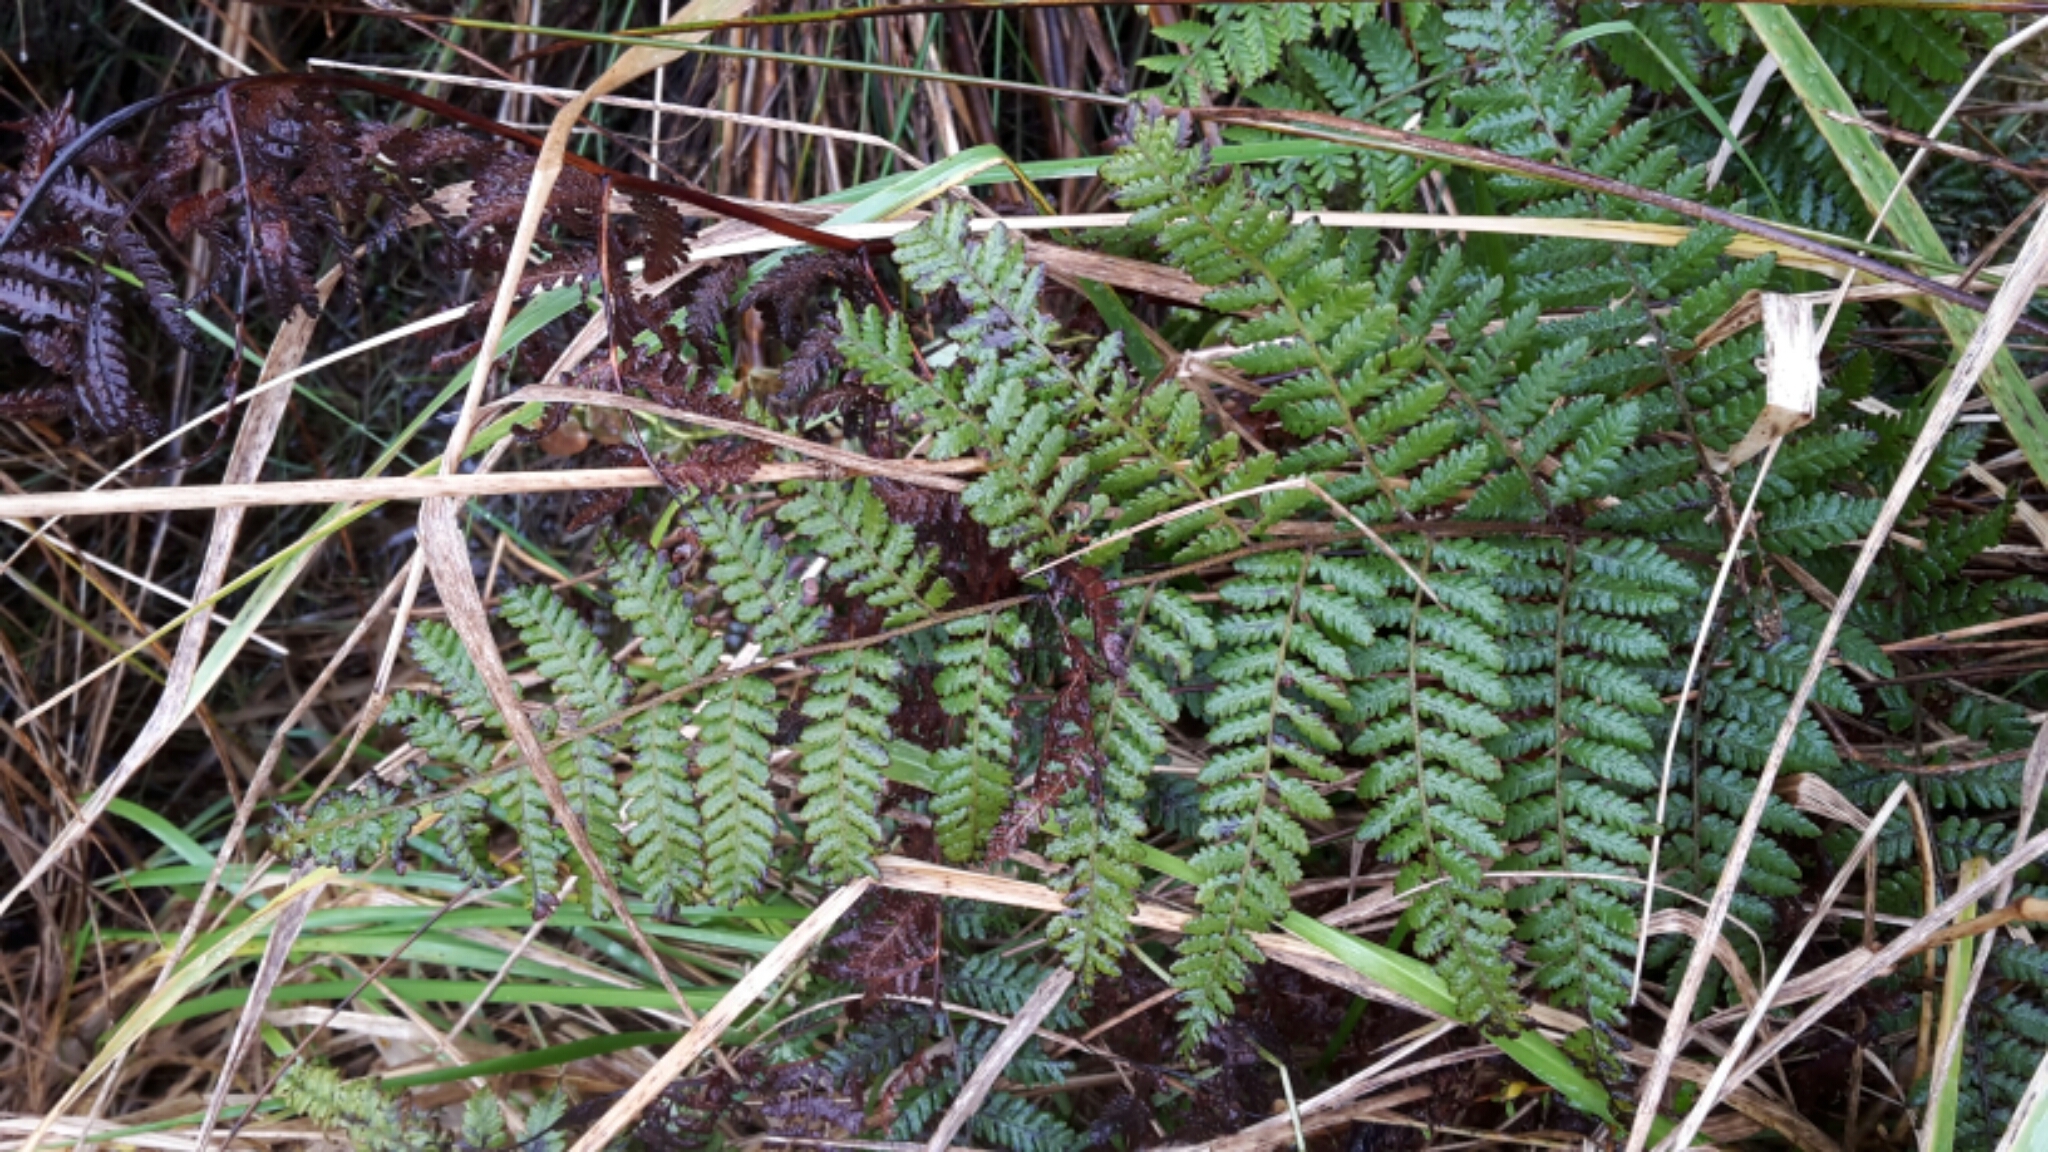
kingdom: Plantae
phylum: Tracheophyta
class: Polypodiopsida
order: Polypodiales
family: Dennstaedtiaceae
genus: Hypolepis
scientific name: Hypolepis ambigua
